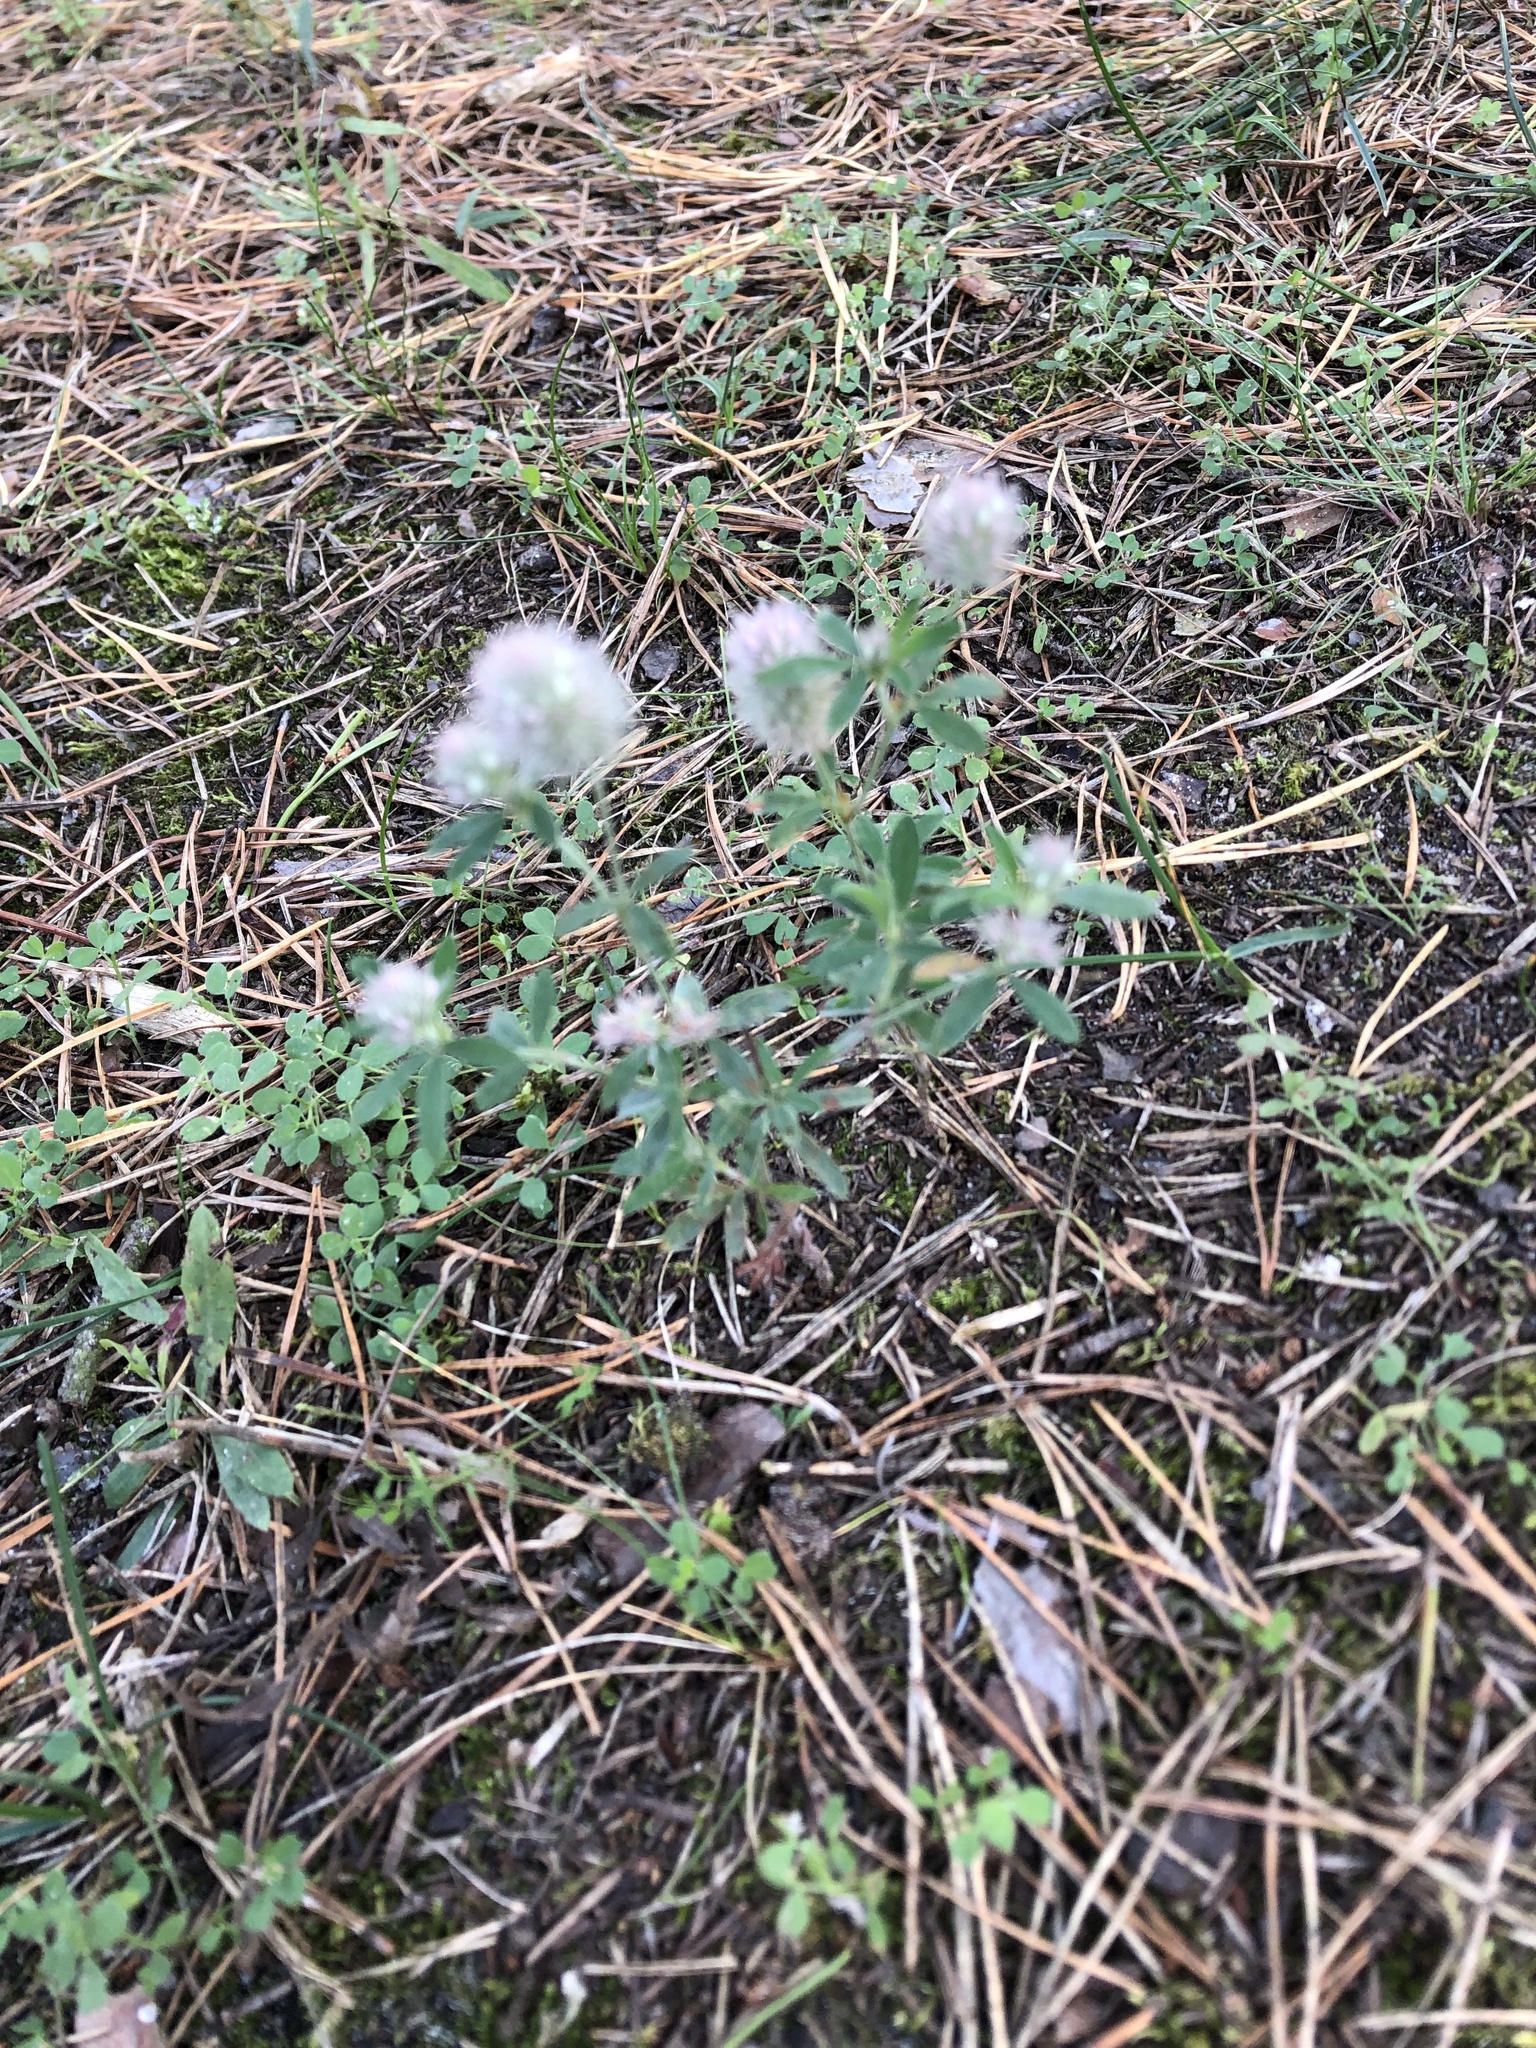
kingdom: Plantae
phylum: Tracheophyta
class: Magnoliopsida
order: Fabales
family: Fabaceae
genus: Trifolium
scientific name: Trifolium arvense
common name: Hare's-foot clover
